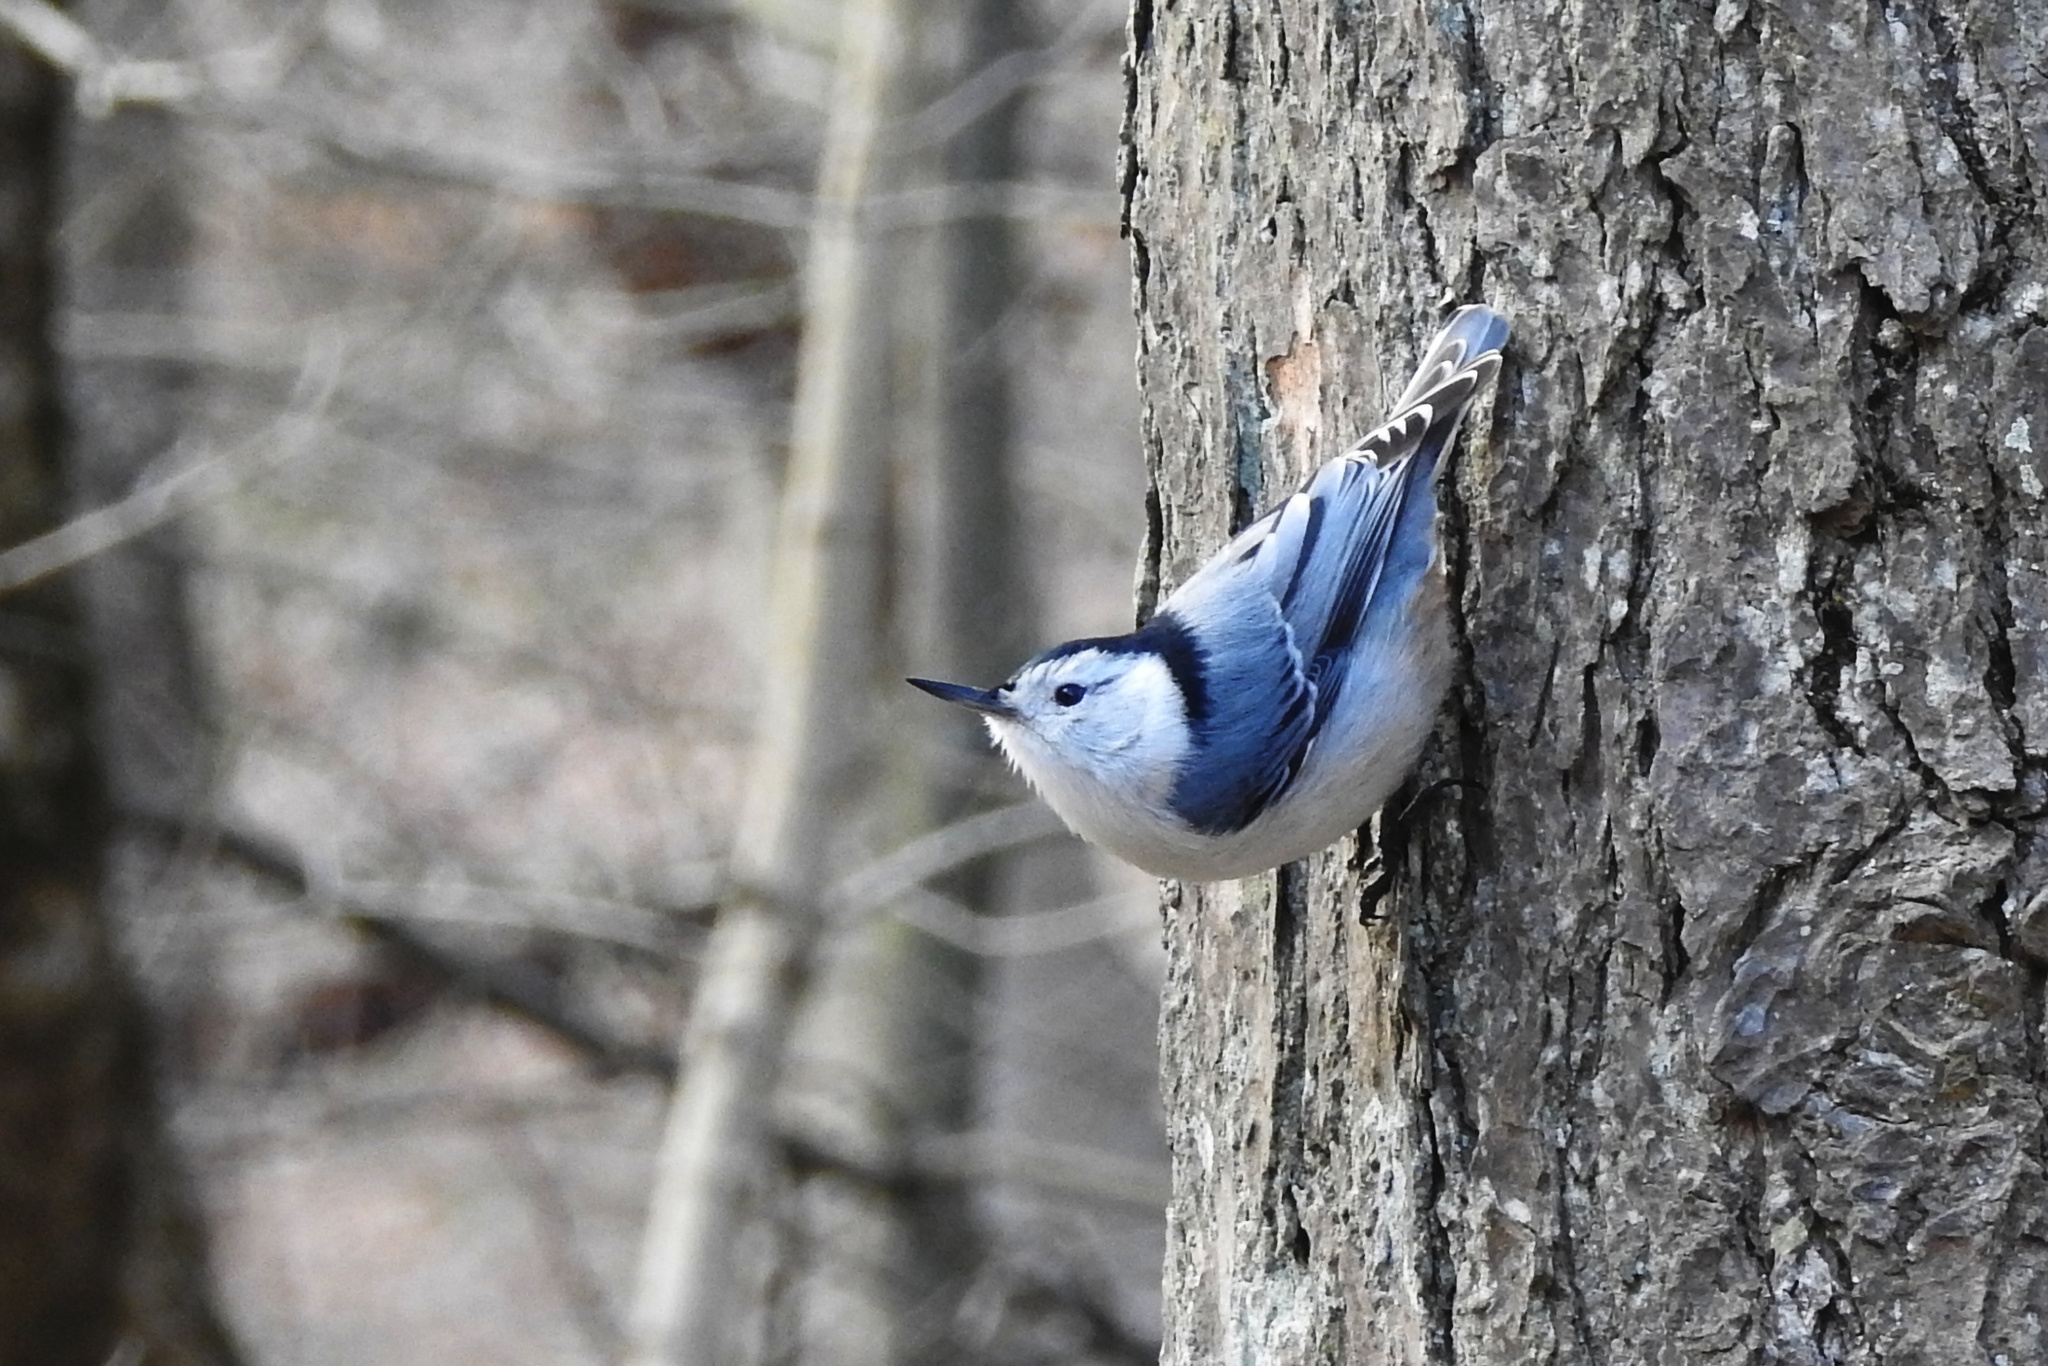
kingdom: Animalia
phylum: Chordata
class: Aves
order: Passeriformes
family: Sittidae
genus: Sitta
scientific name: Sitta carolinensis
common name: White-breasted nuthatch
